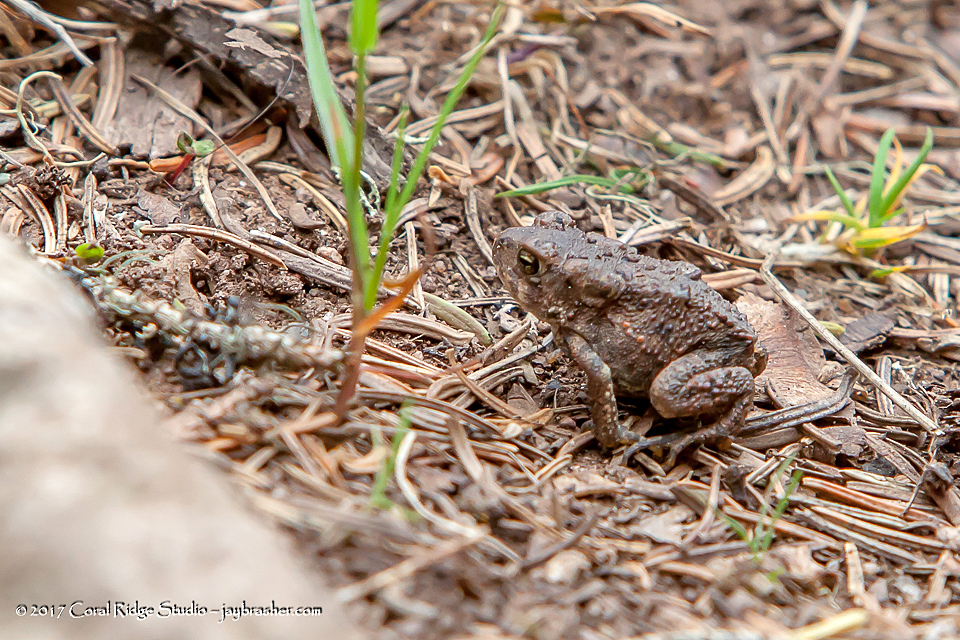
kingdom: Animalia
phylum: Chordata
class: Amphibia
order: Anura
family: Bufonidae
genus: Anaxyrus
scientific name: Anaxyrus americanus
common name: American toad
